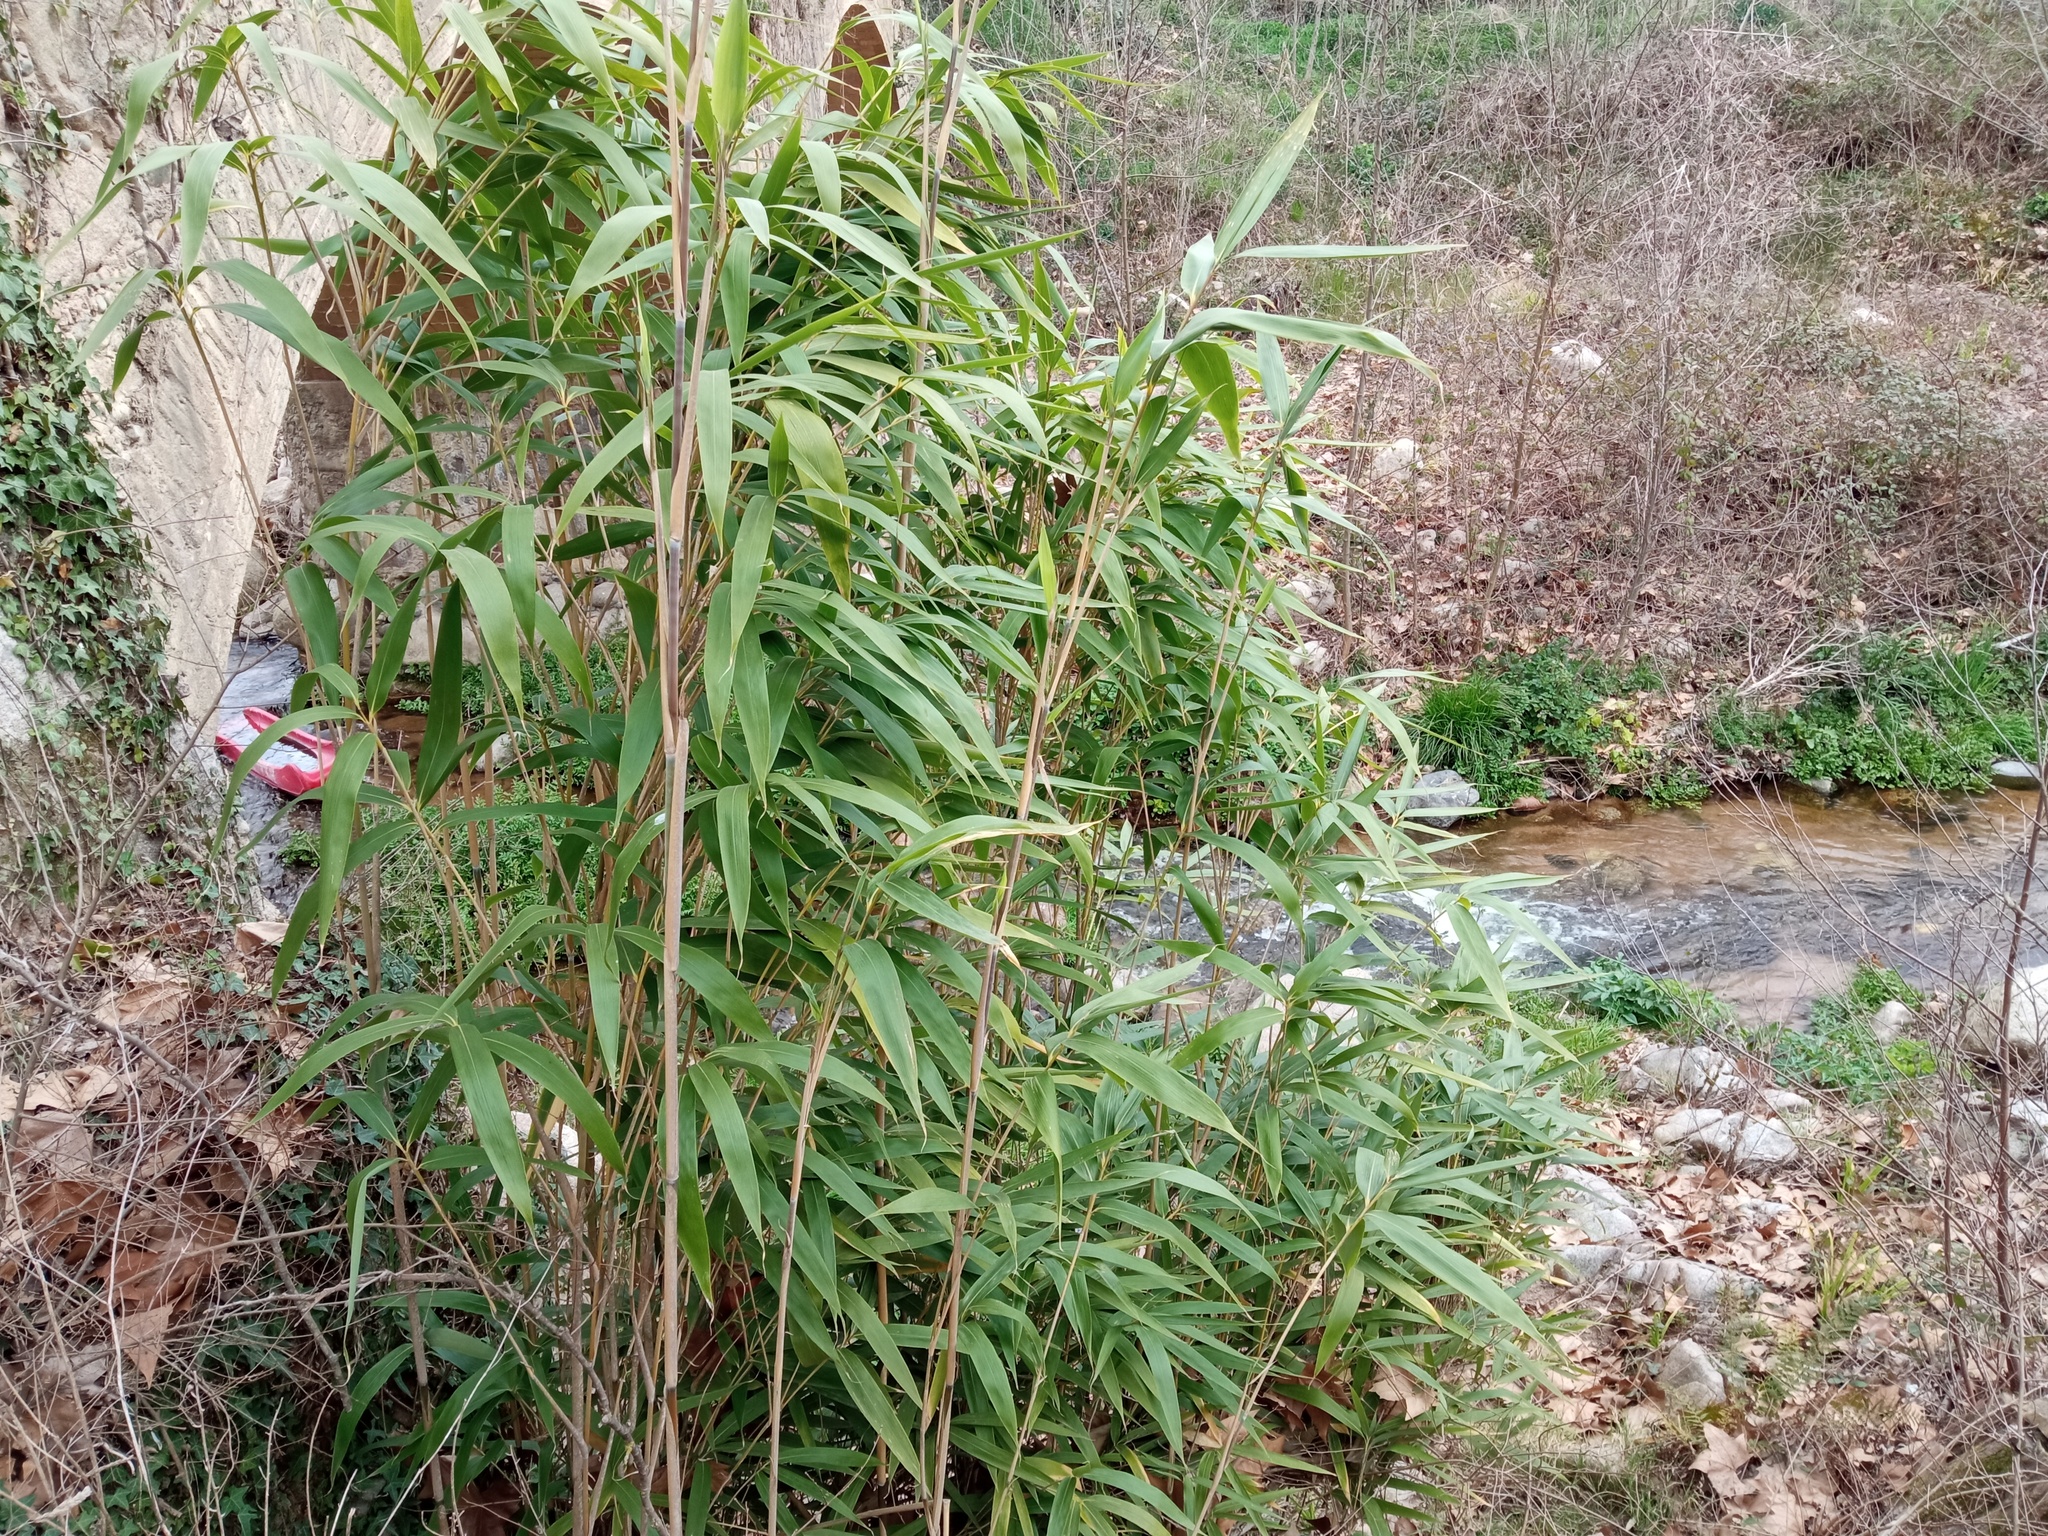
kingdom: Plantae
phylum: Tracheophyta
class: Liliopsida
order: Poales
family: Poaceae
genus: Pseudosasa
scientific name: Pseudosasa japonica
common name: Arrow bamboo
